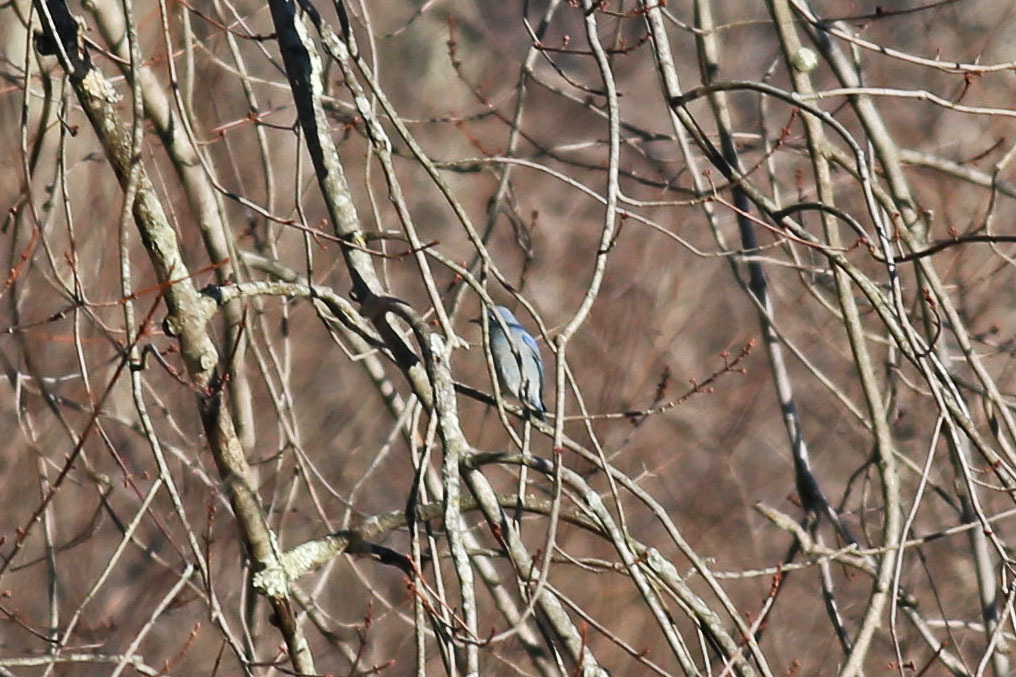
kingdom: Animalia
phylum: Chordata
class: Aves
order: Passeriformes
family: Turdidae
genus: Sialia
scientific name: Sialia currucoides
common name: Mountain bluebird
